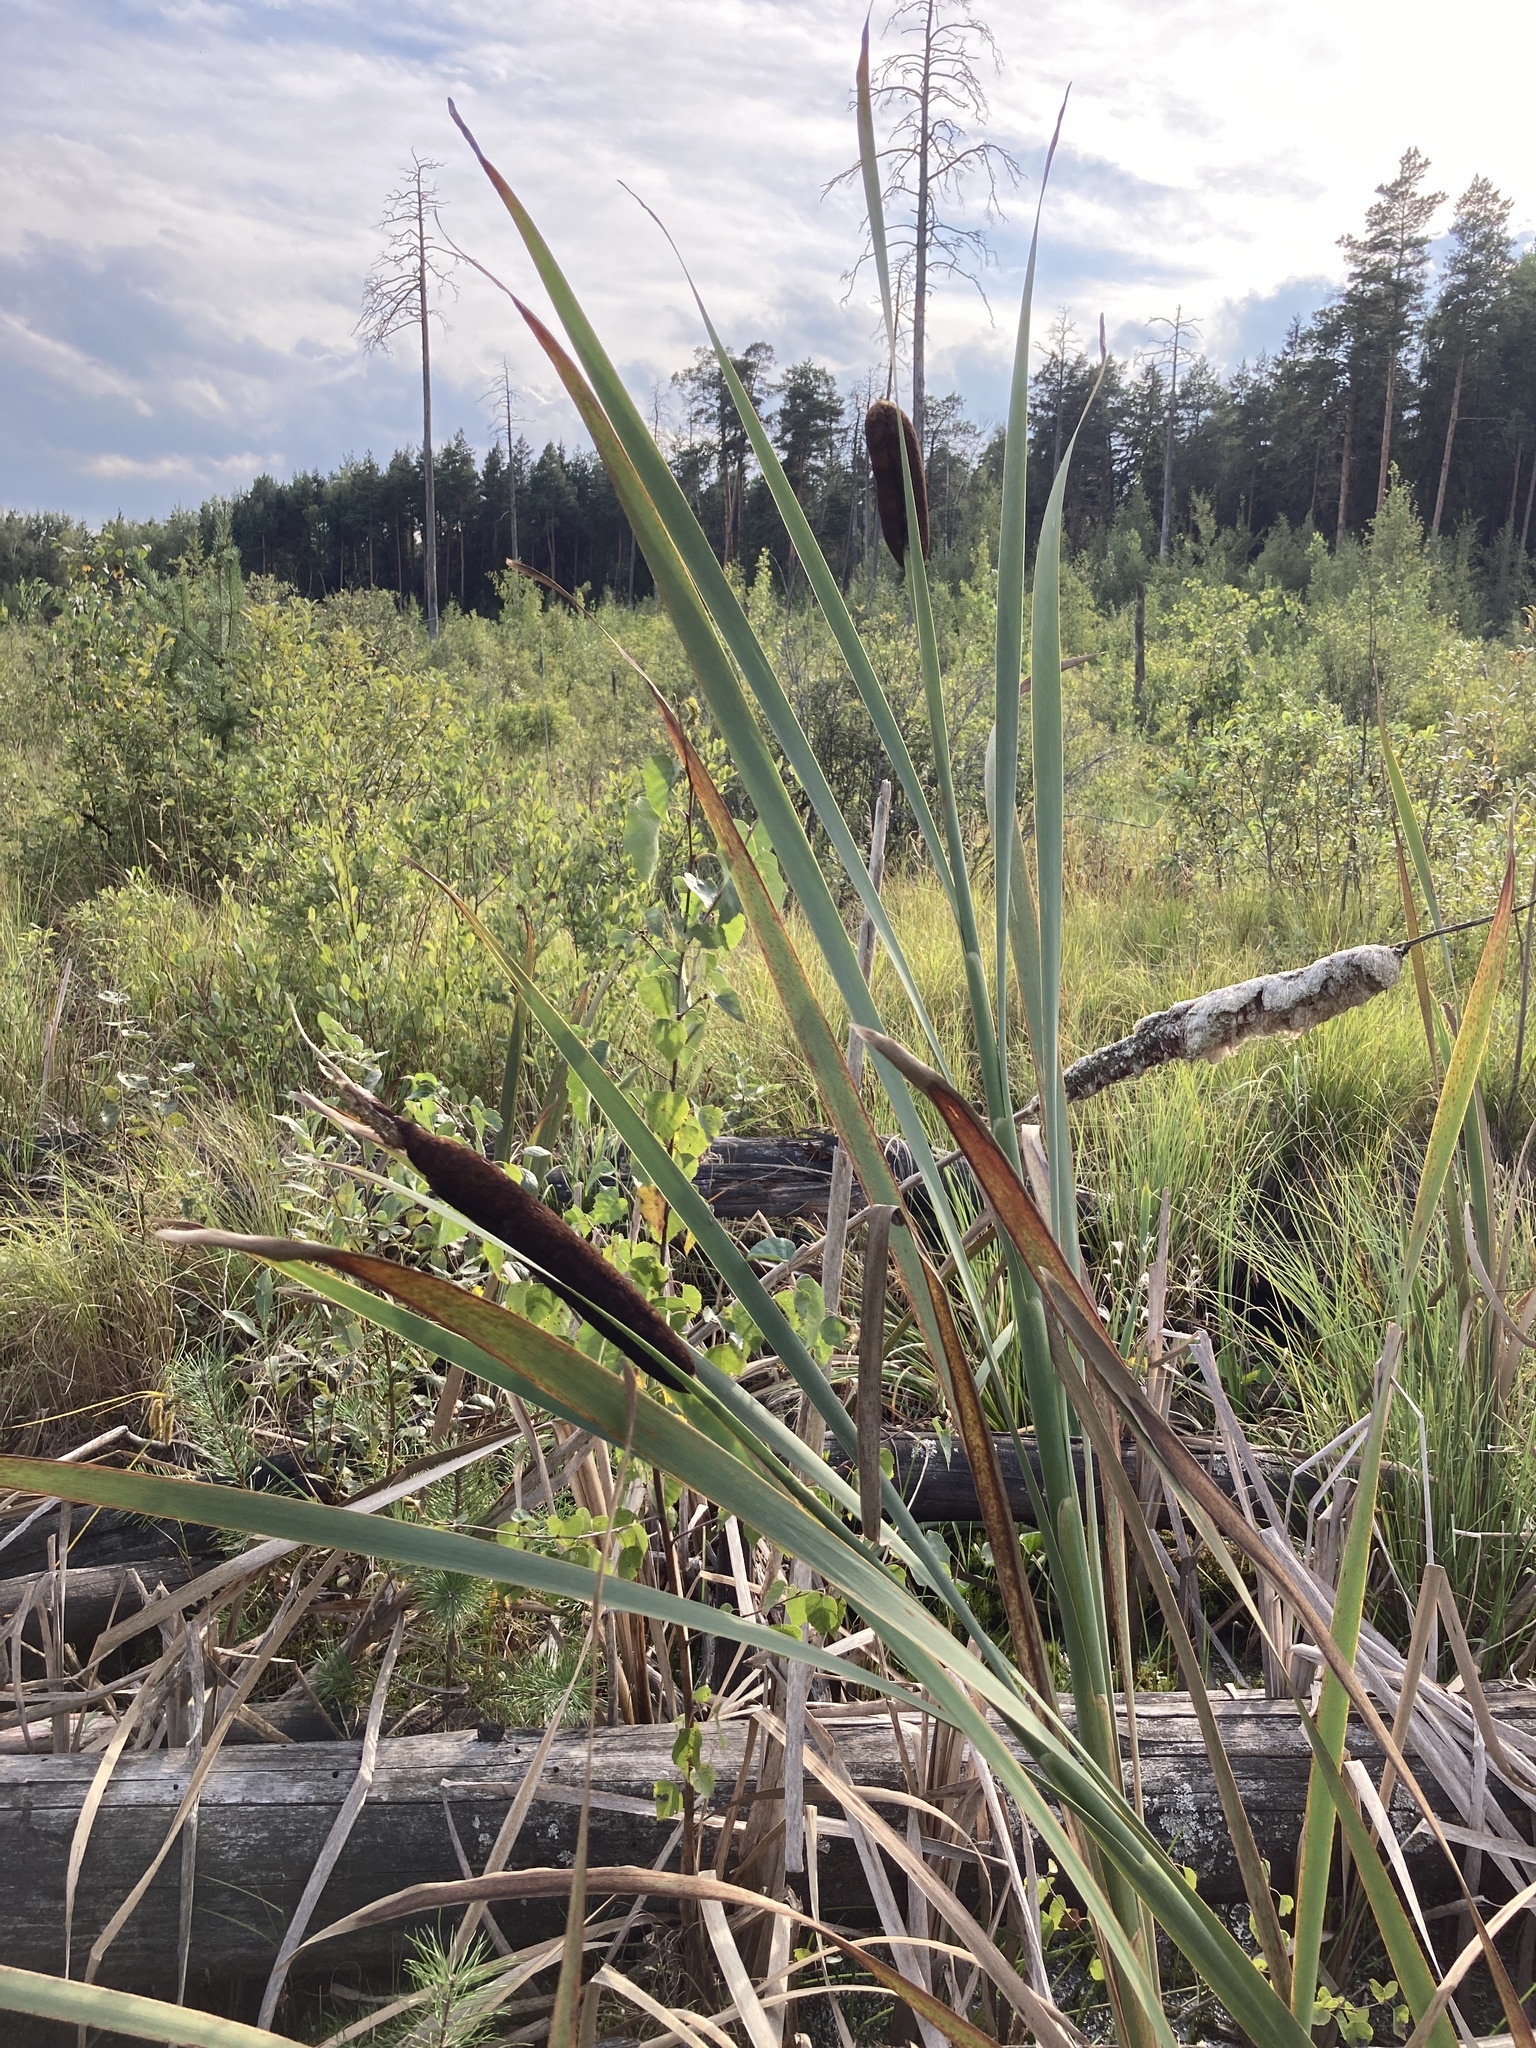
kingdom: Plantae
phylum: Tracheophyta
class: Liliopsida
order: Poales
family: Typhaceae
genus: Typha
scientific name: Typha latifolia
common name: Broadleaf cattail
